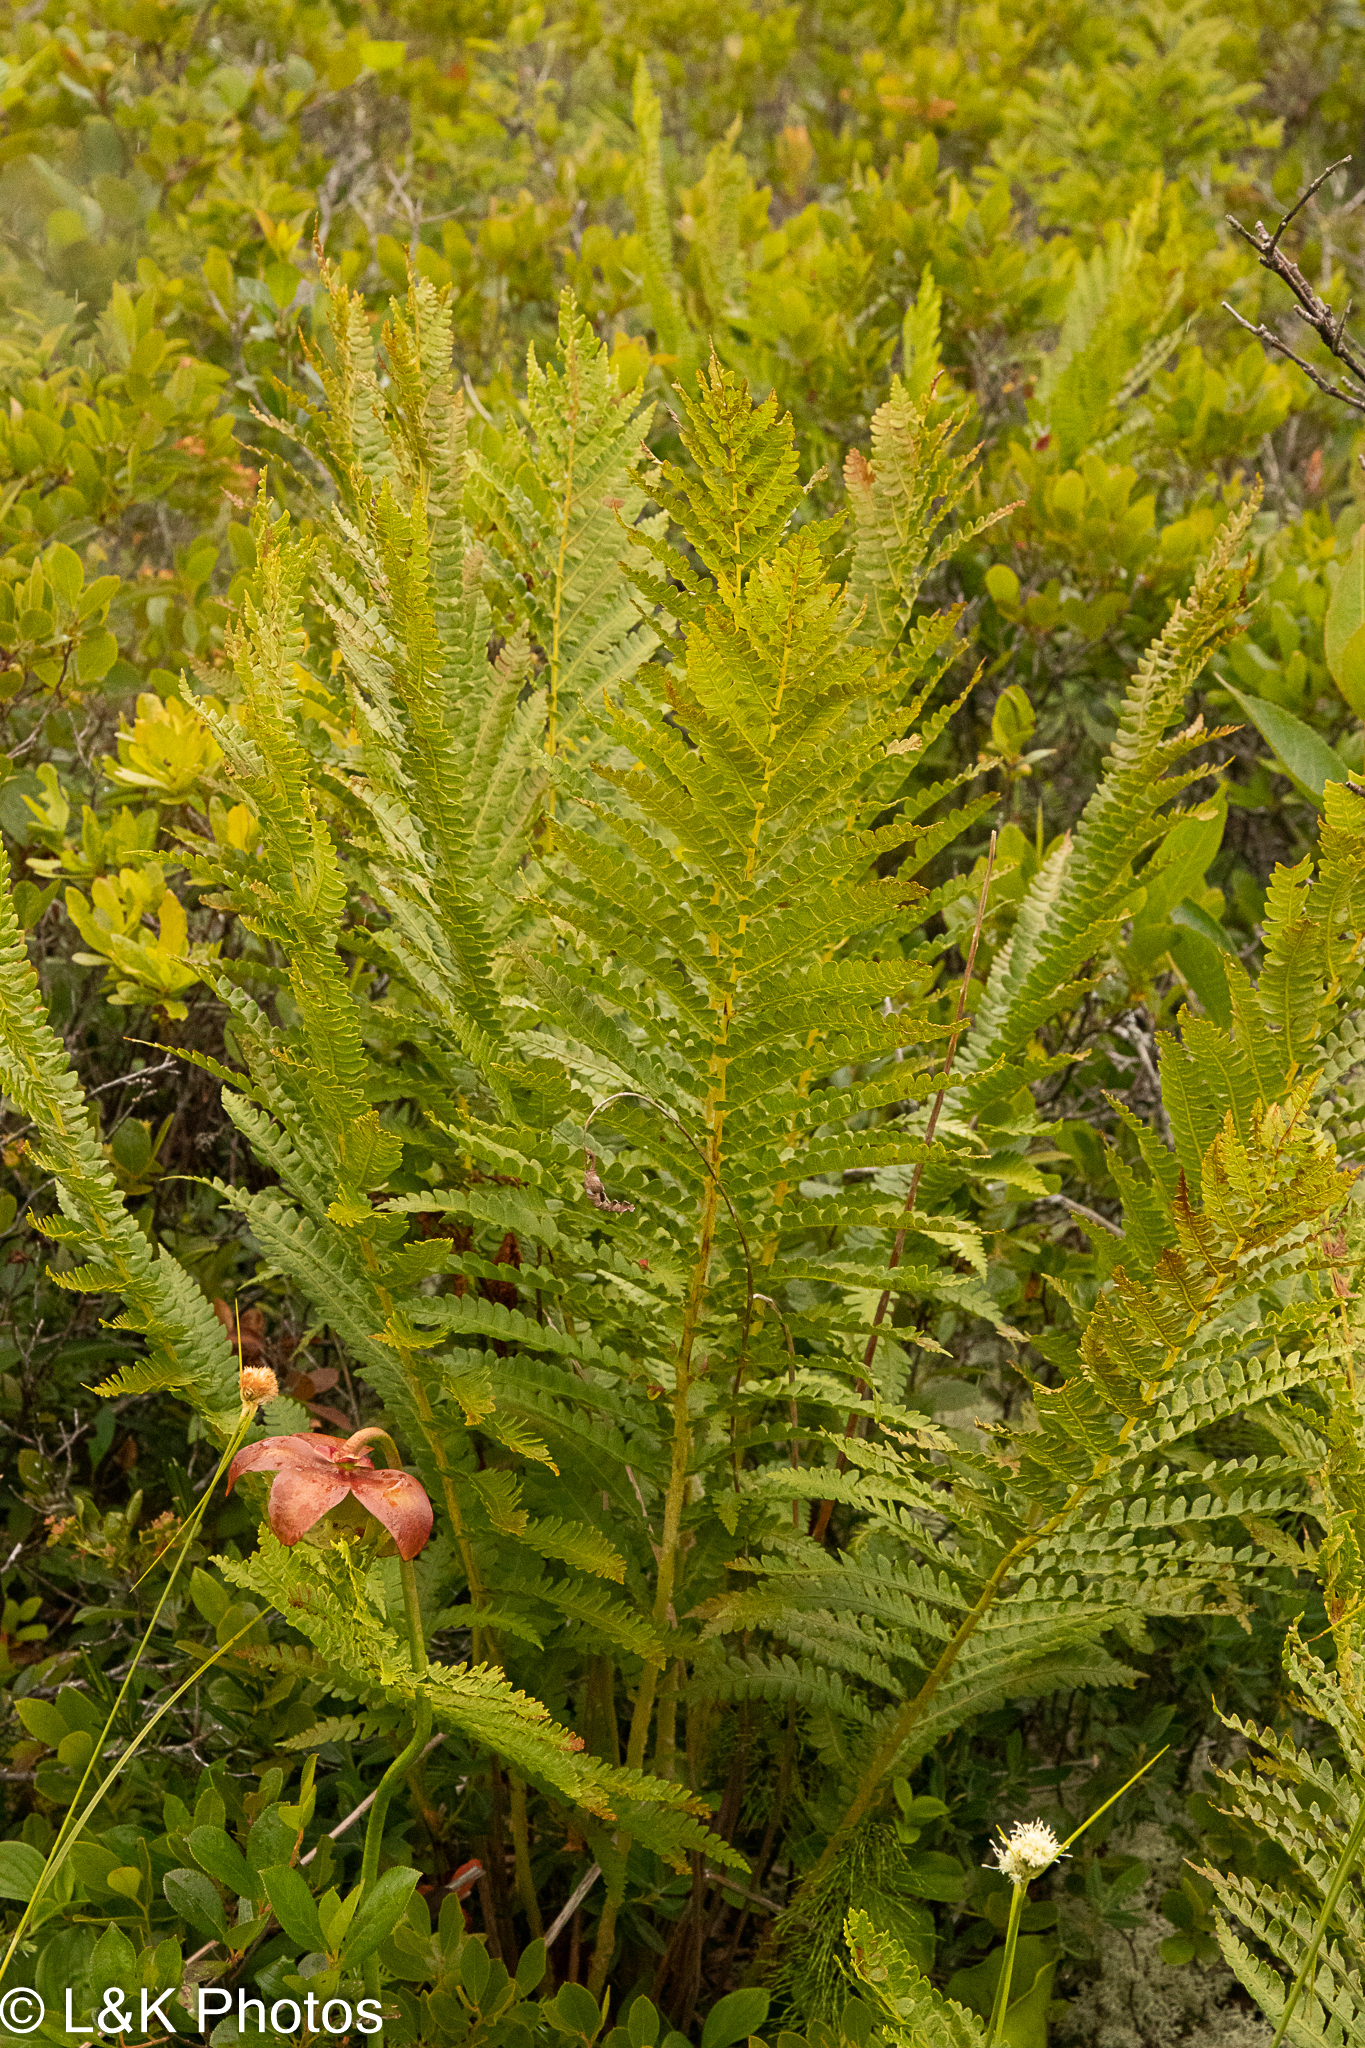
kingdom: Plantae
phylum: Tracheophyta
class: Polypodiopsida
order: Osmundales
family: Osmundaceae
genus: Osmundastrum
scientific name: Osmundastrum cinnamomeum
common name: Cinnamon fern
